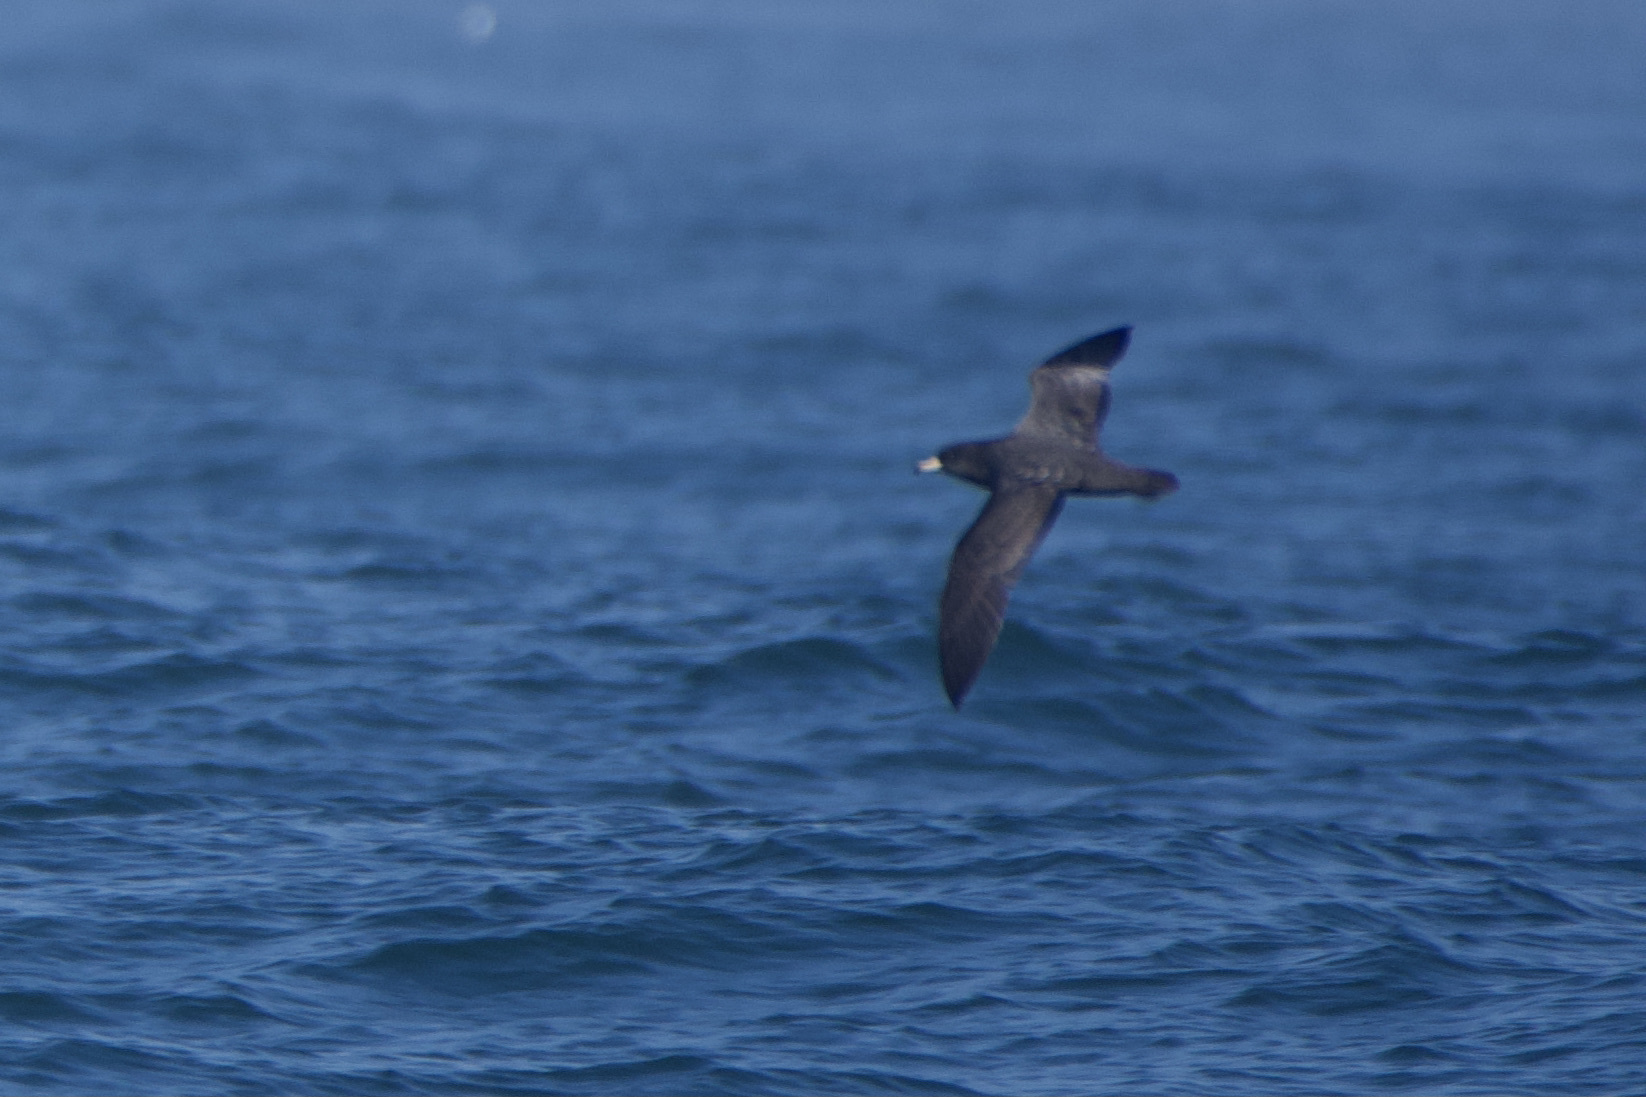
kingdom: Animalia
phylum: Chordata
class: Aves
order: Procellariiformes
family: Procellariidae
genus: Puffinus
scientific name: Puffinus carneipes
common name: Flesh-footed shearwater
